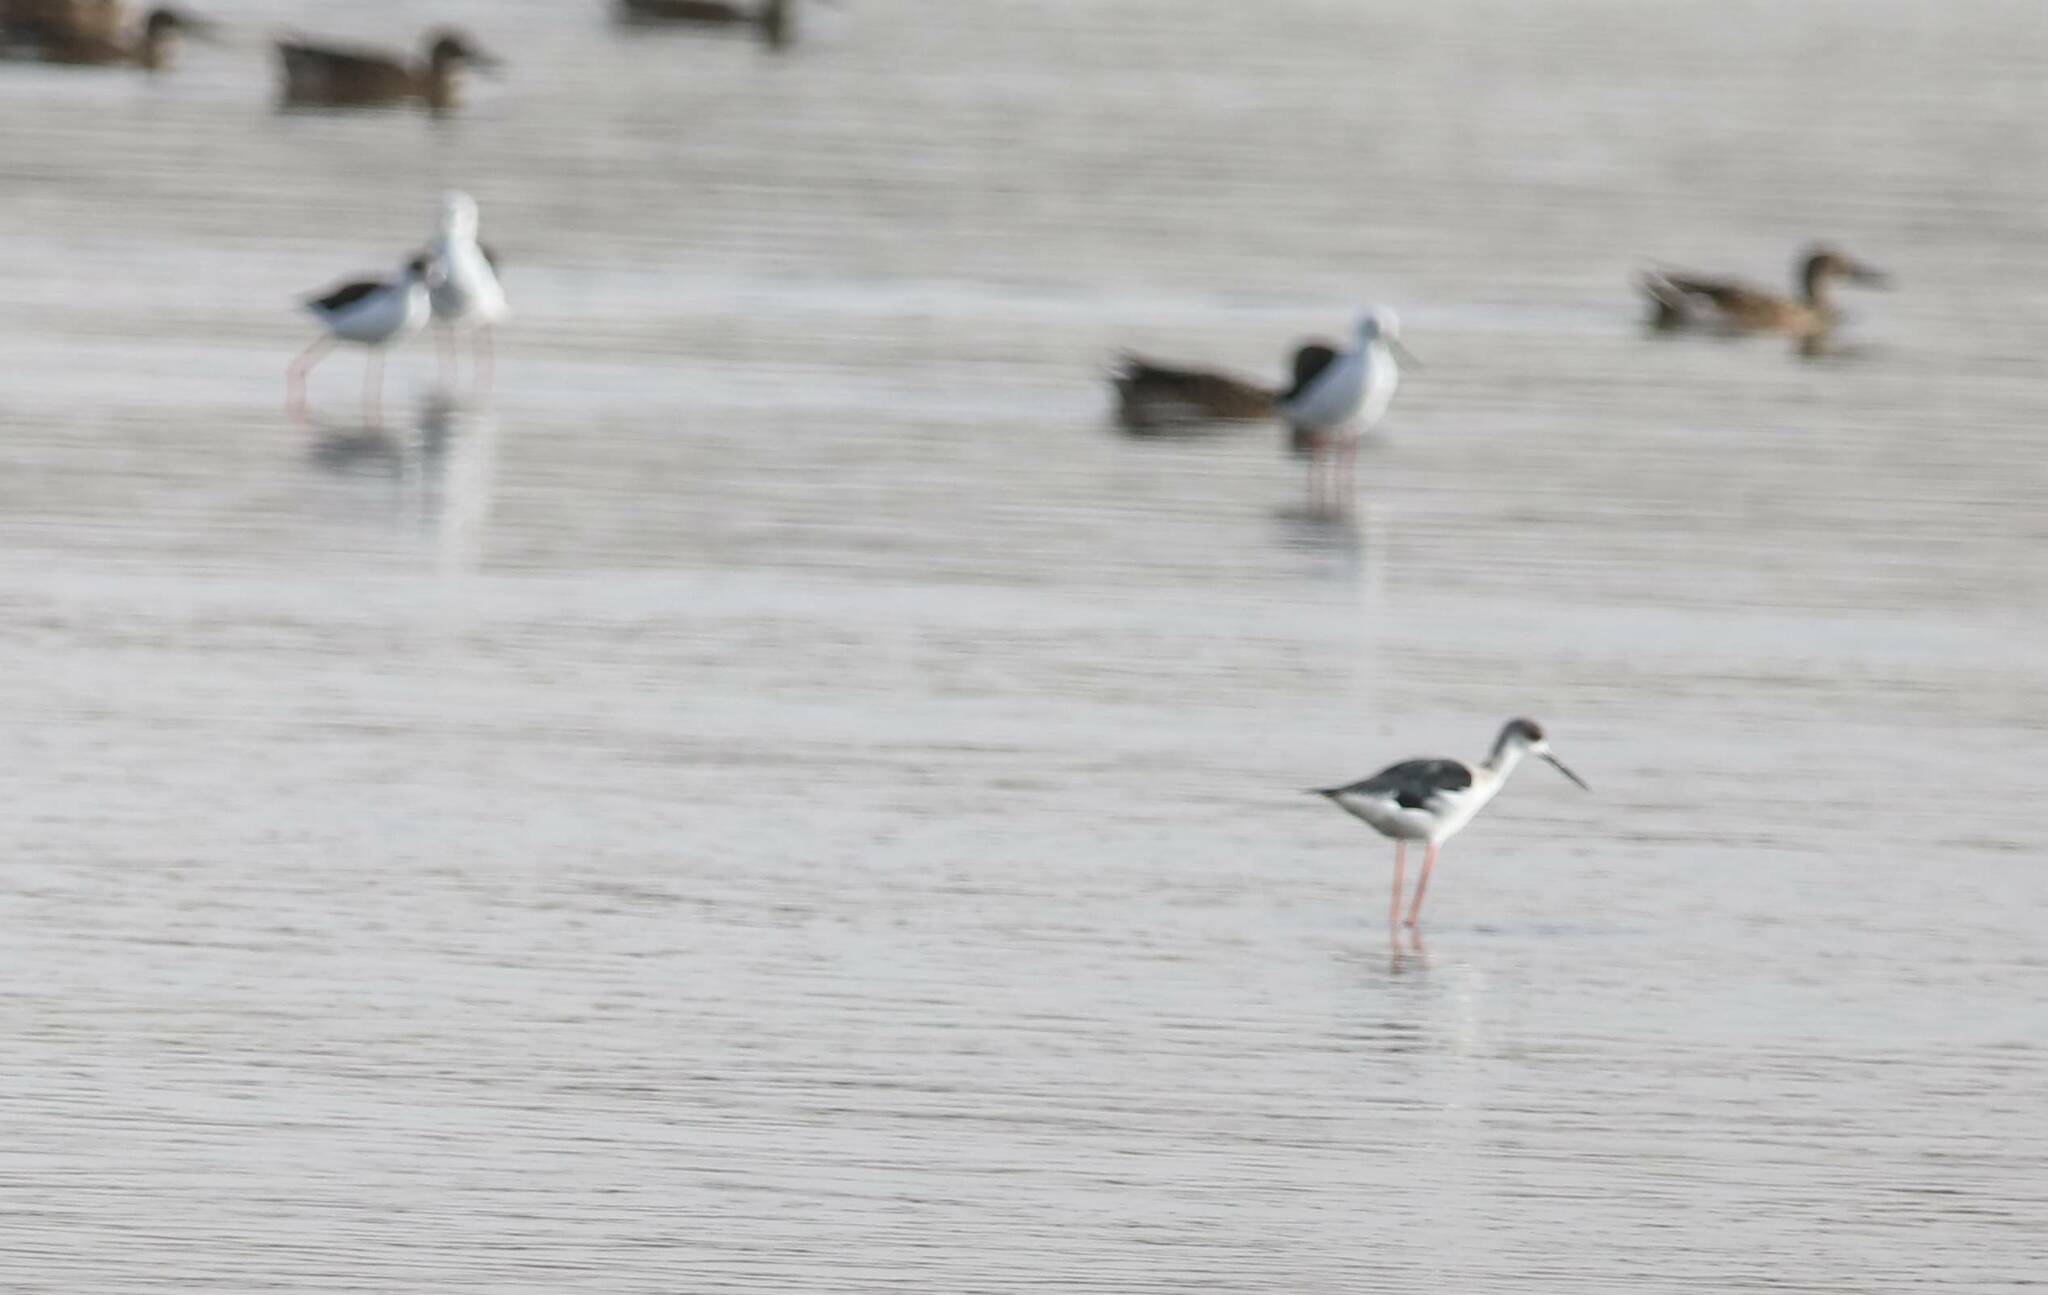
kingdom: Animalia
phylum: Chordata
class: Aves
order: Charadriiformes
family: Recurvirostridae
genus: Himantopus
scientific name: Himantopus himantopus
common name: Black-winged stilt
